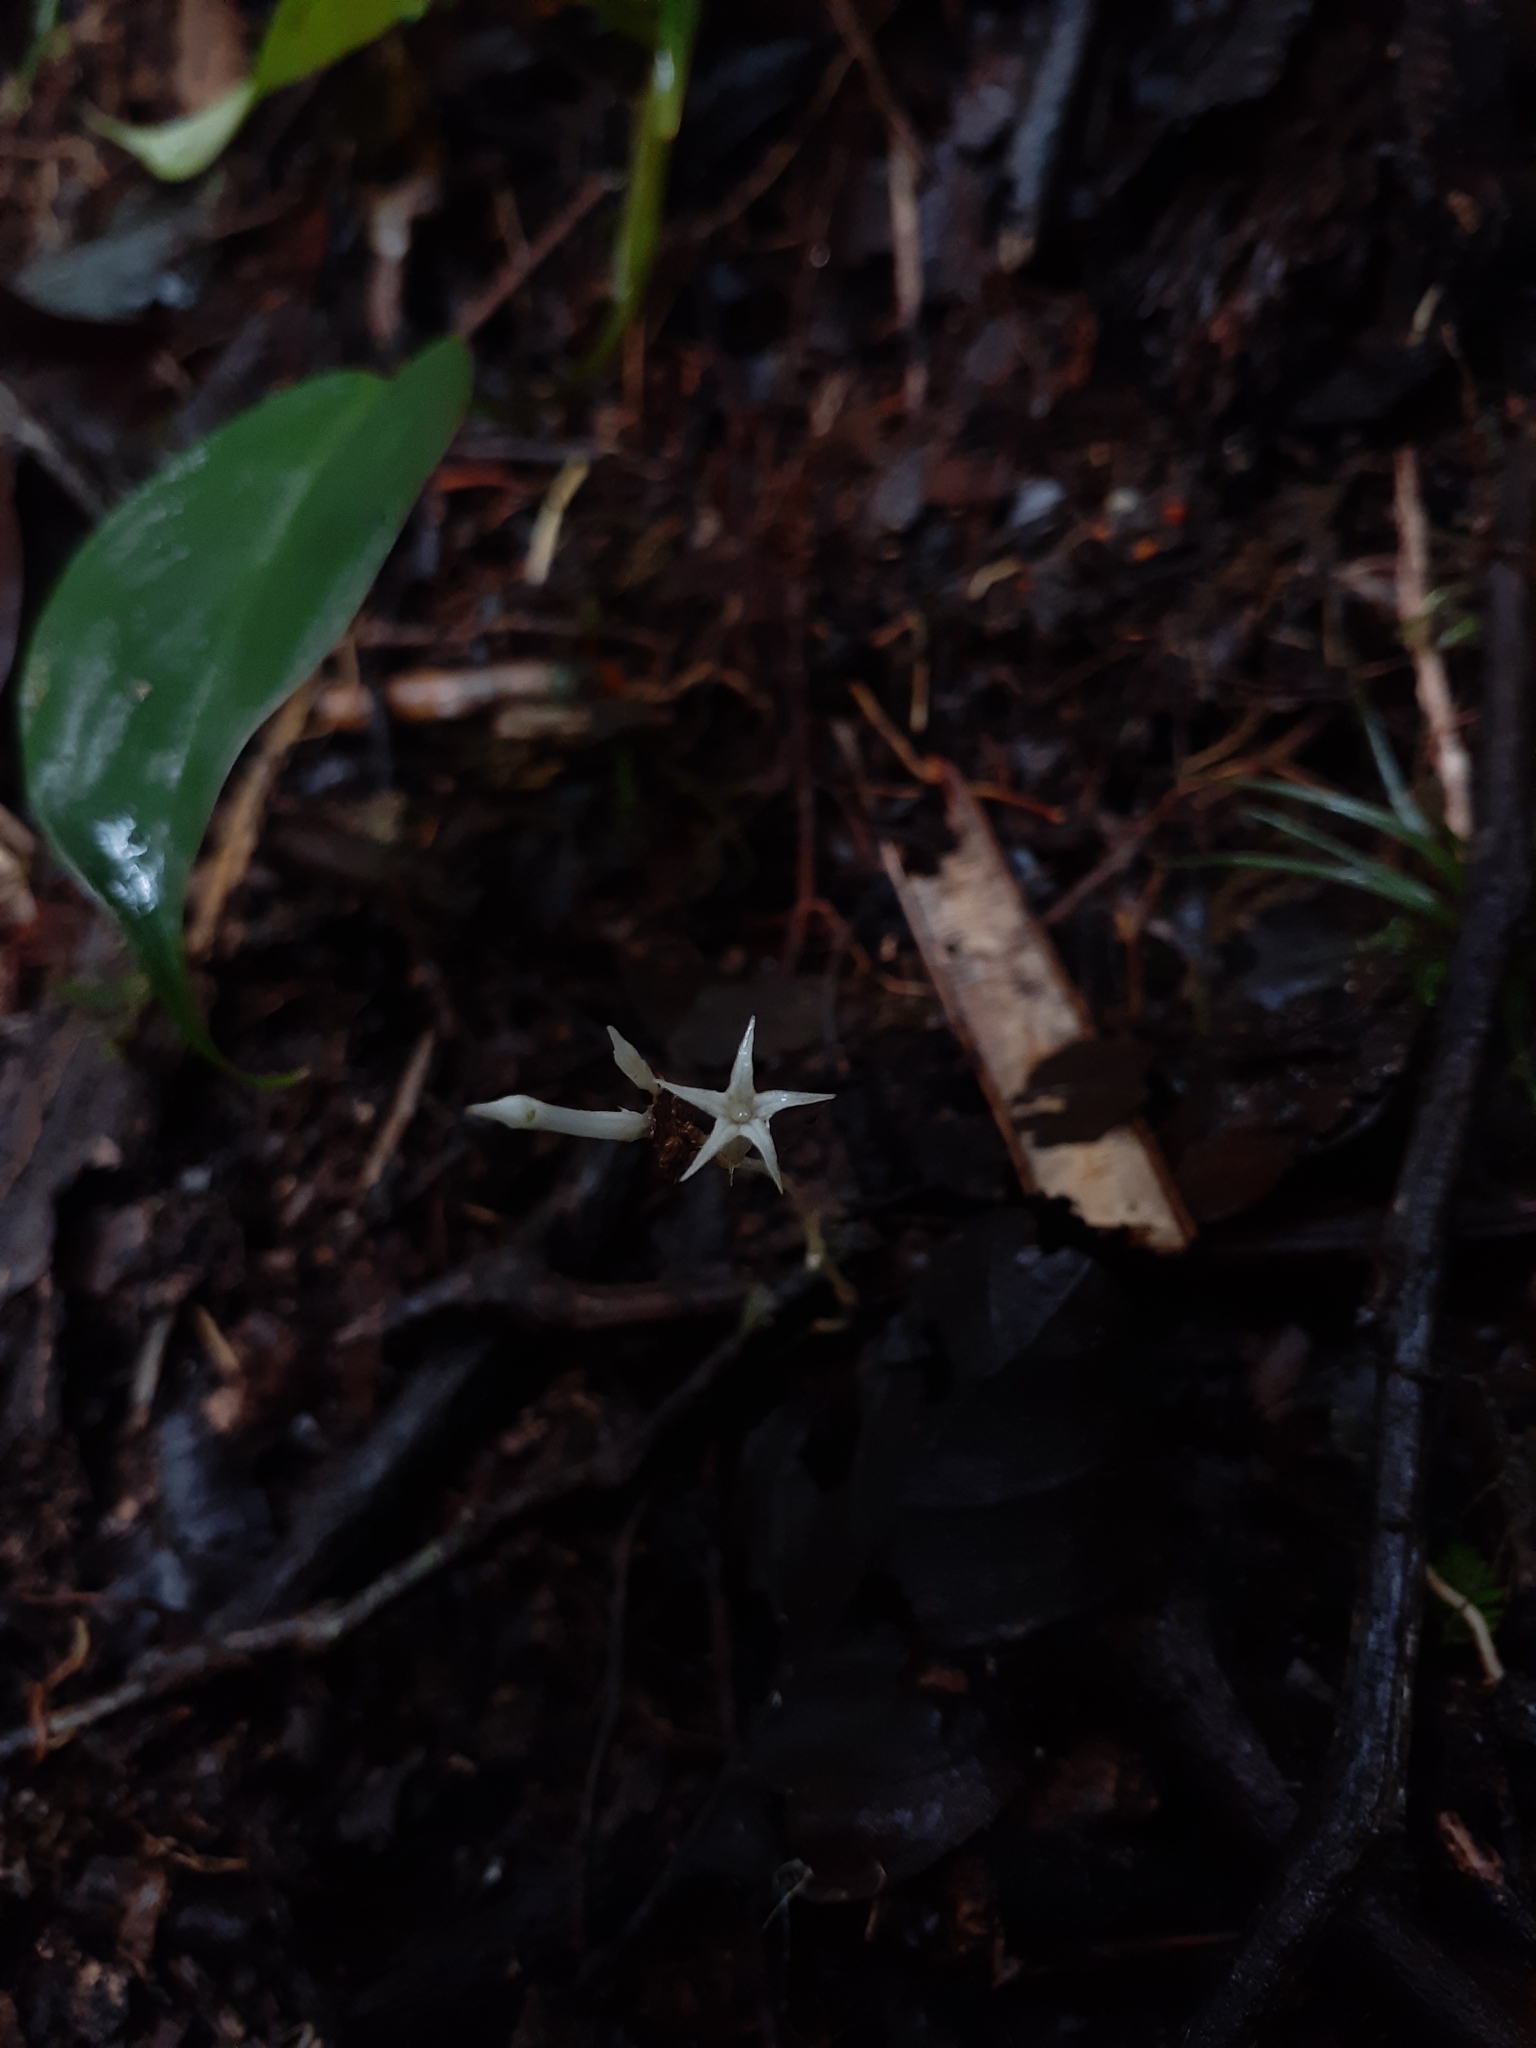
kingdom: Plantae
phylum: Tracheophyta
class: Magnoliopsida
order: Gentianales
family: Gentianaceae
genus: Voyria
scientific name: Voyria corymbosa
